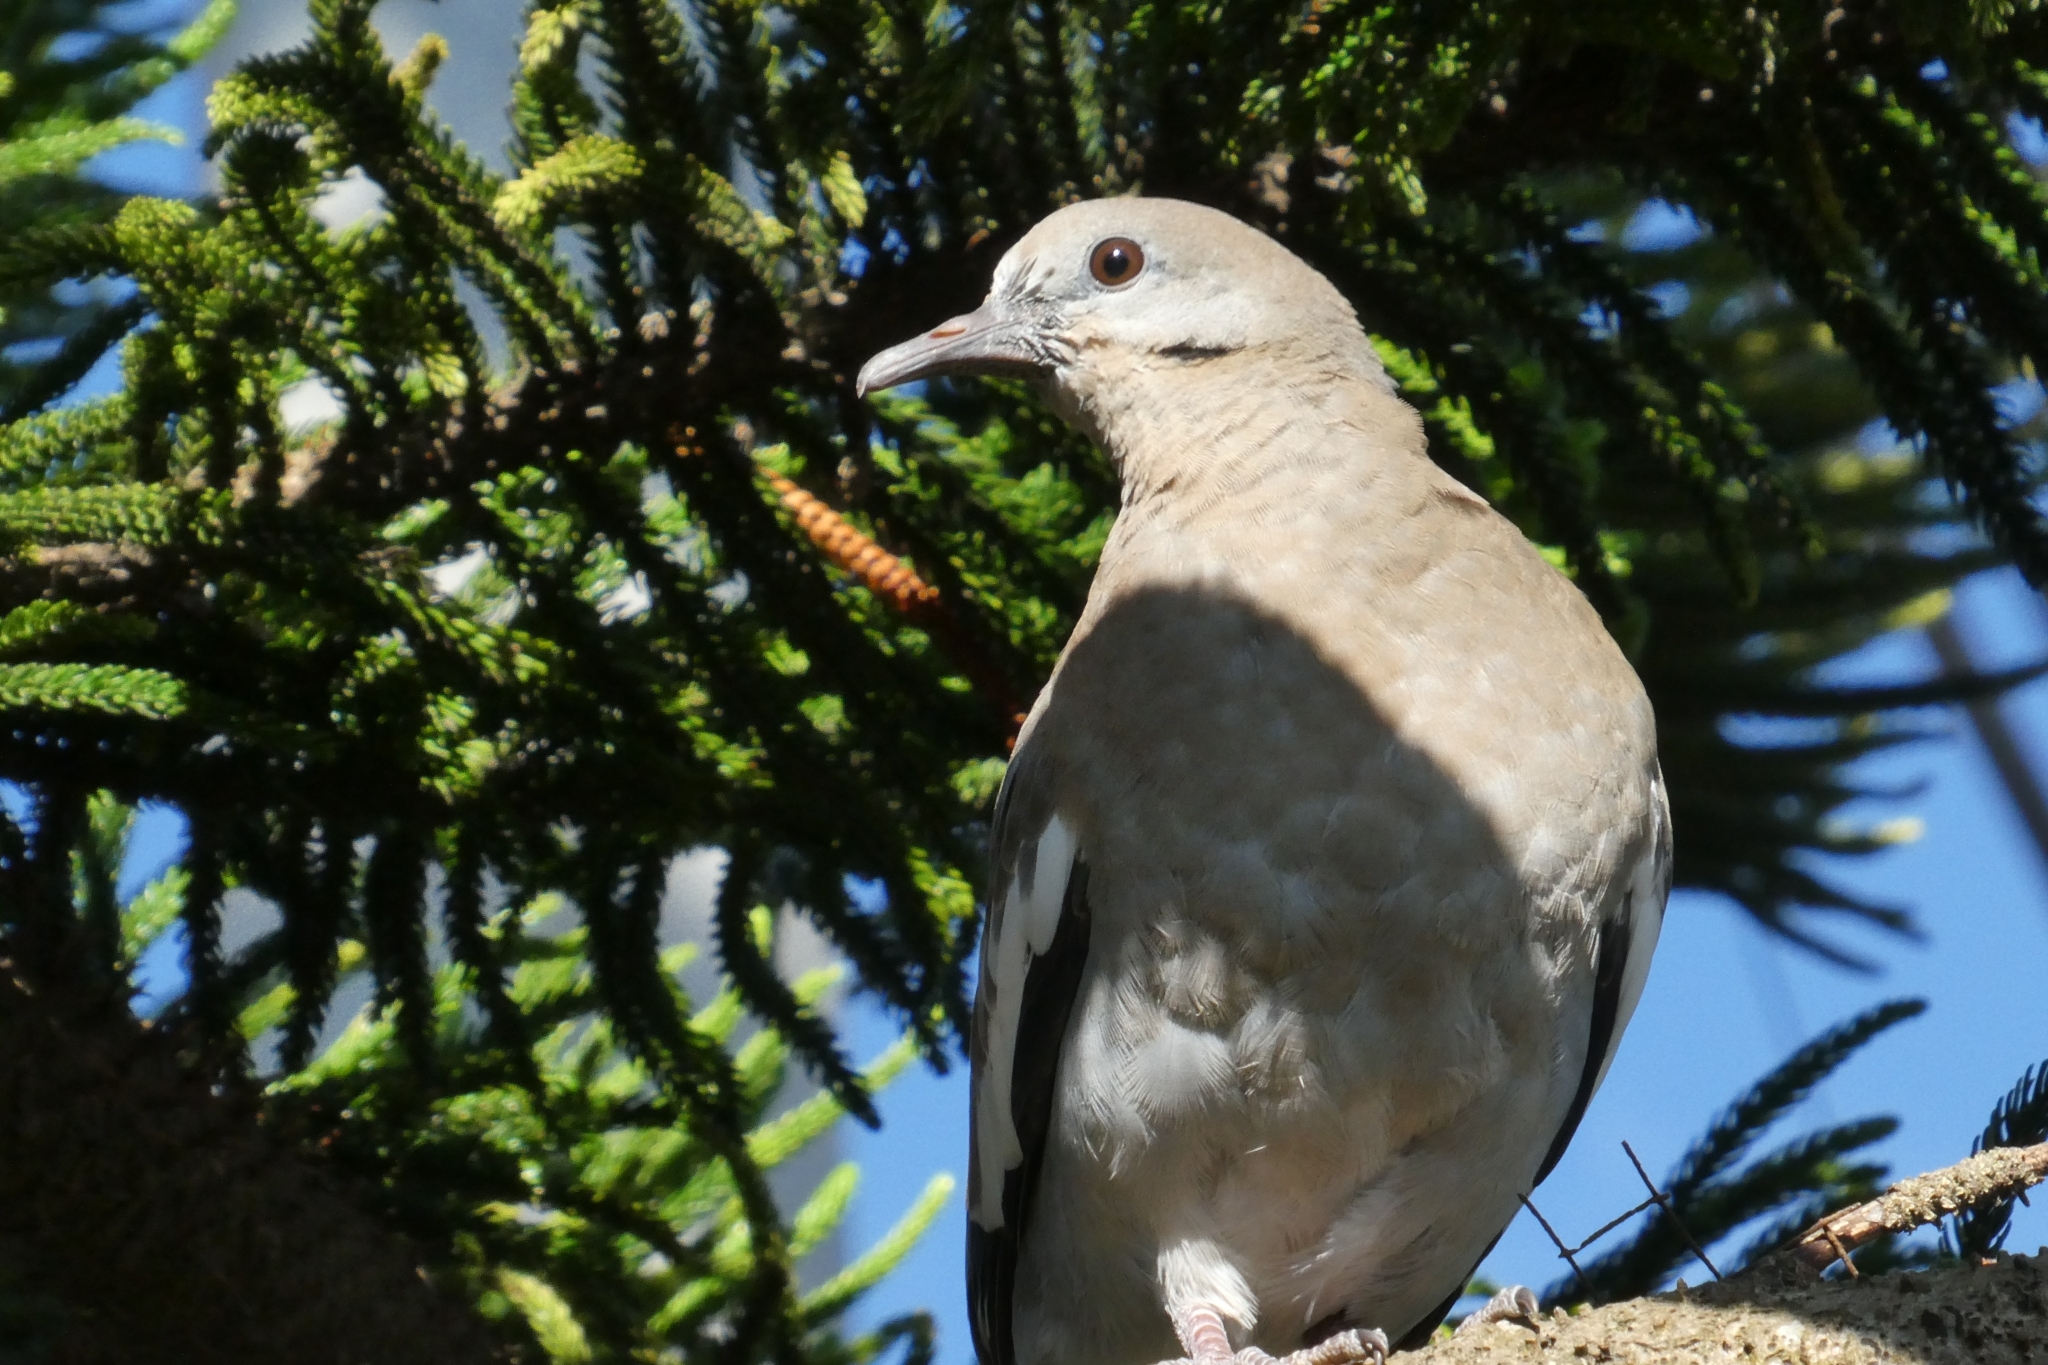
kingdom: Animalia
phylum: Chordata
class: Aves
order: Columbiformes
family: Columbidae
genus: Zenaida
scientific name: Zenaida asiatica
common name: White-winged dove
